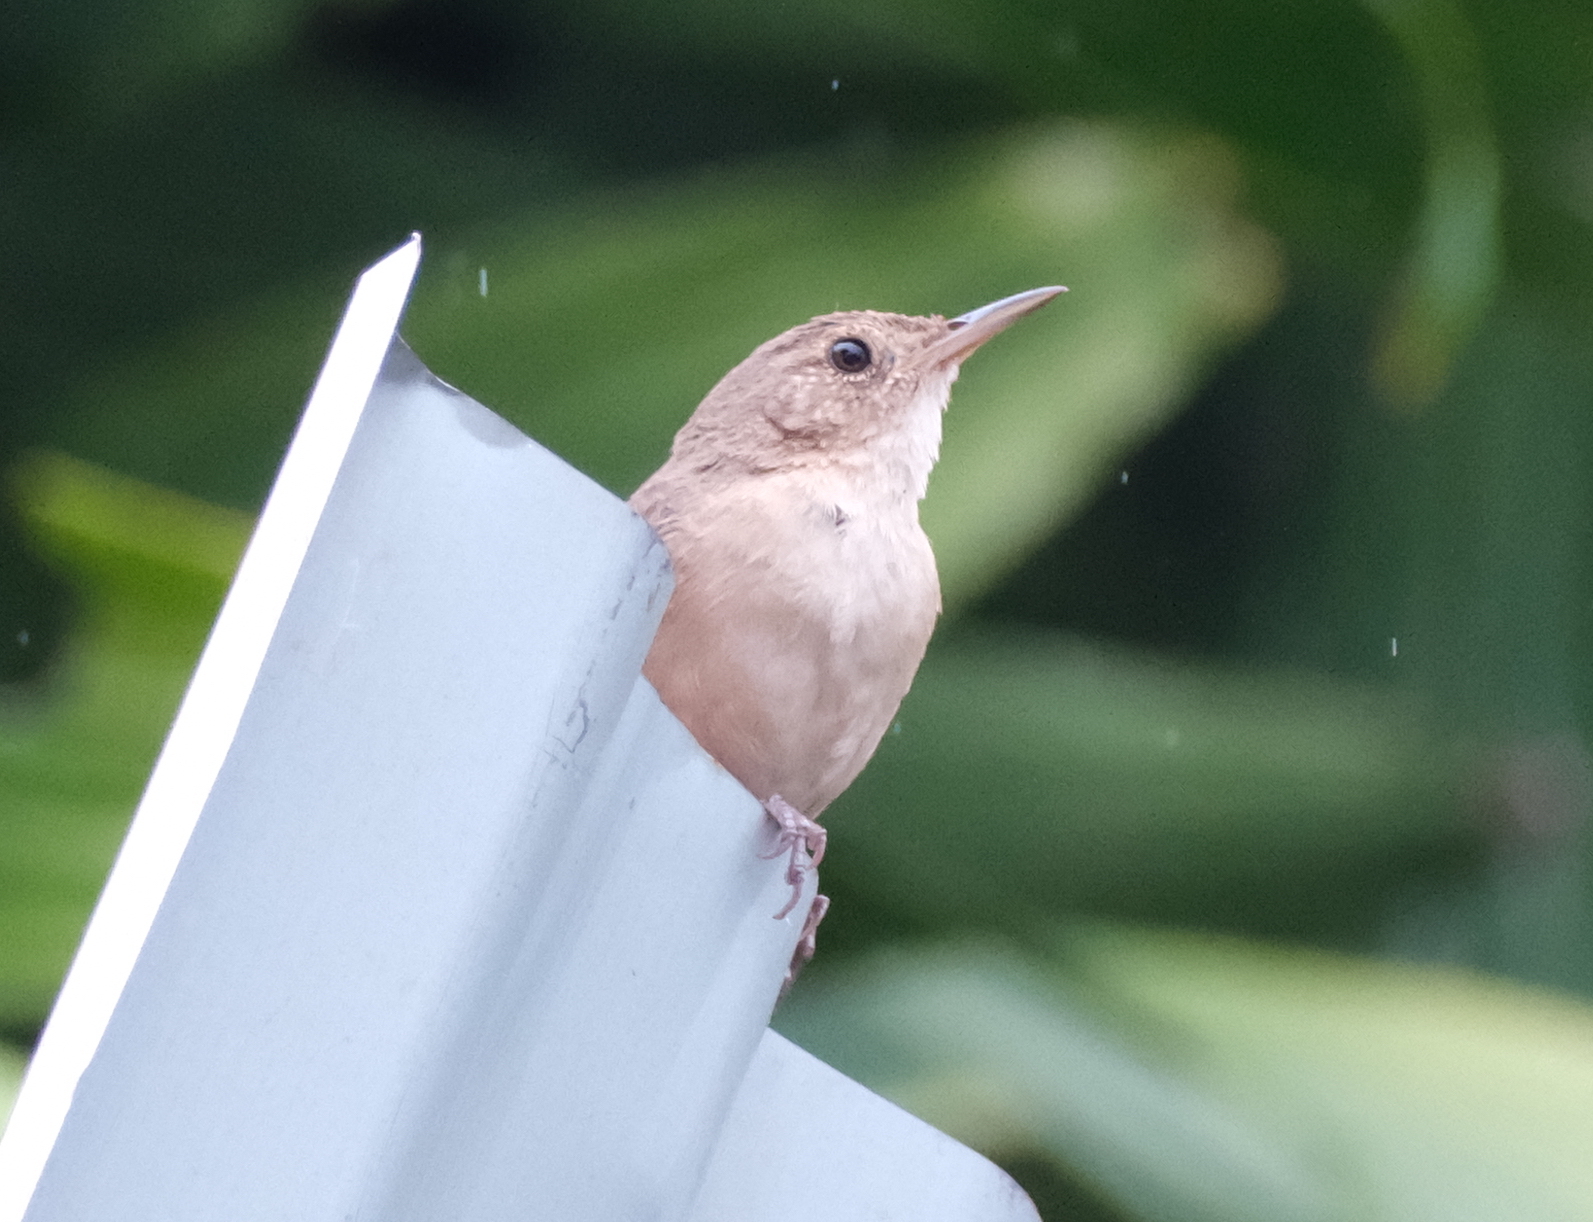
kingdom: Animalia
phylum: Chordata
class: Aves
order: Passeriformes
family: Troglodytidae
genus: Troglodytes
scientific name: Troglodytes aedon
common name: House wren
